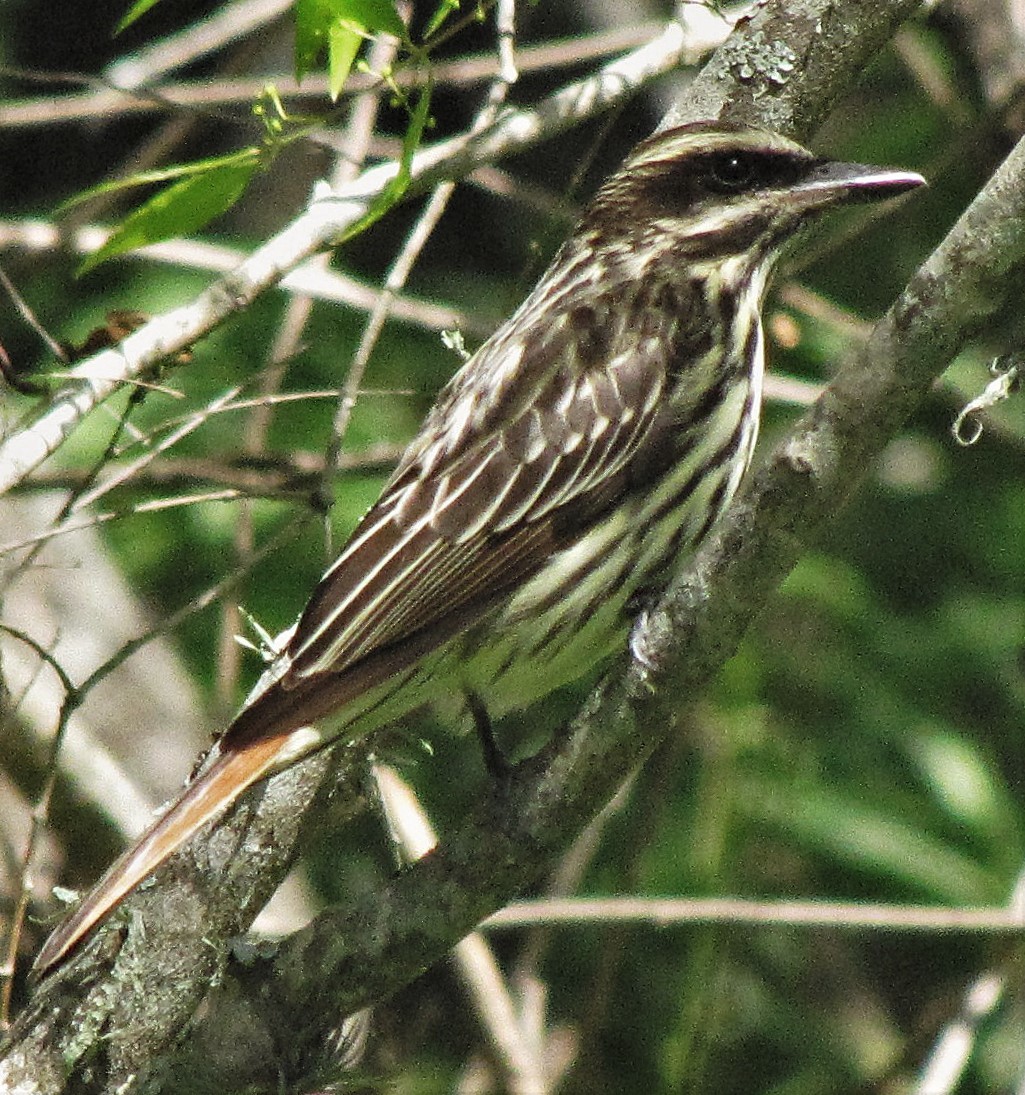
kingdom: Animalia
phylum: Chordata
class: Aves
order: Passeriformes
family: Tyrannidae
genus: Myiodynastes
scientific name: Myiodynastes maculatus
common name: Streaked flycatcher
